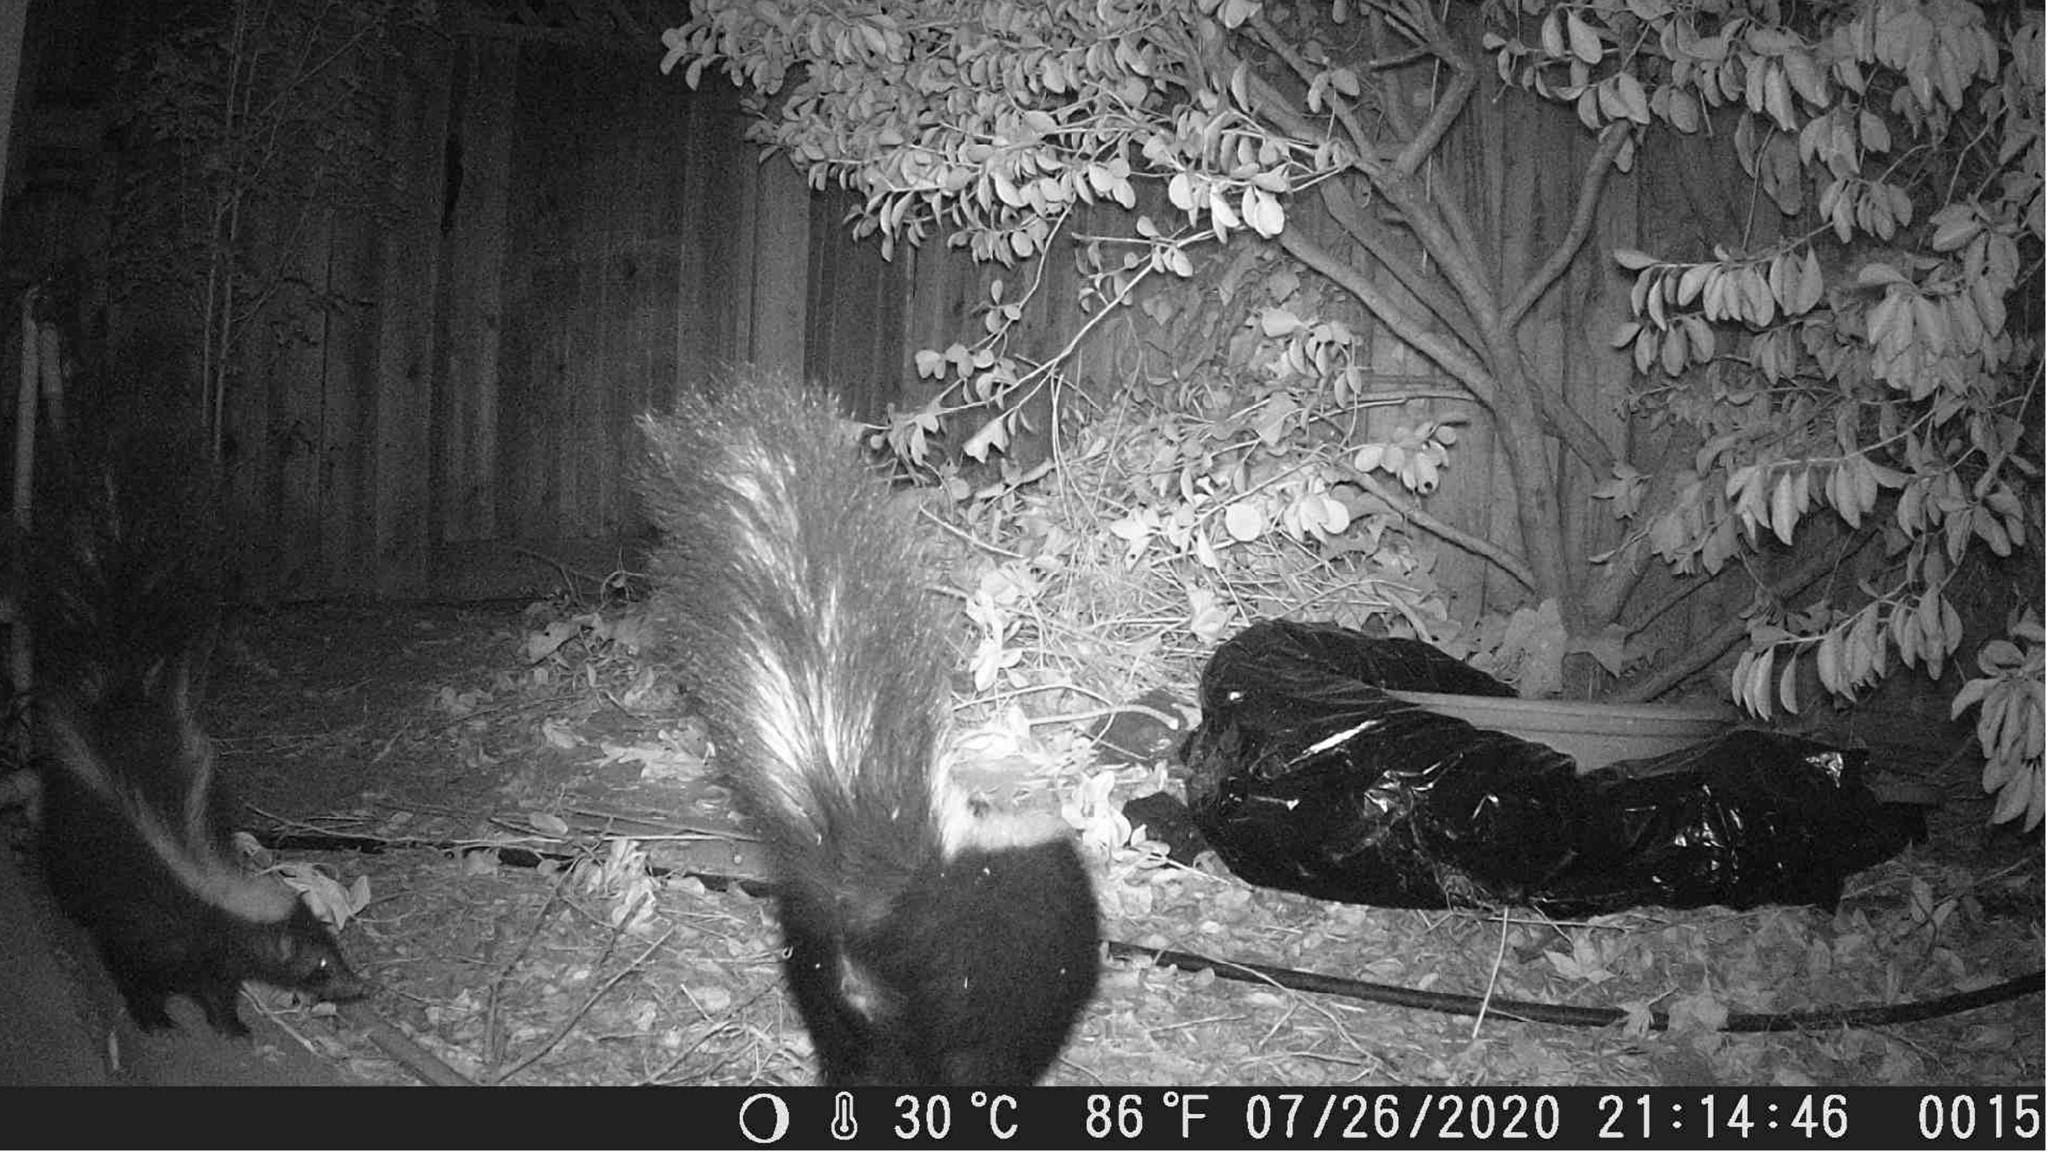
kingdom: Animalia
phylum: Chordata
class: Mammalia
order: Carnivora
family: Mephitidae
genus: Mephitis
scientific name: Mephitis mephitis
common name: Striped skunk
